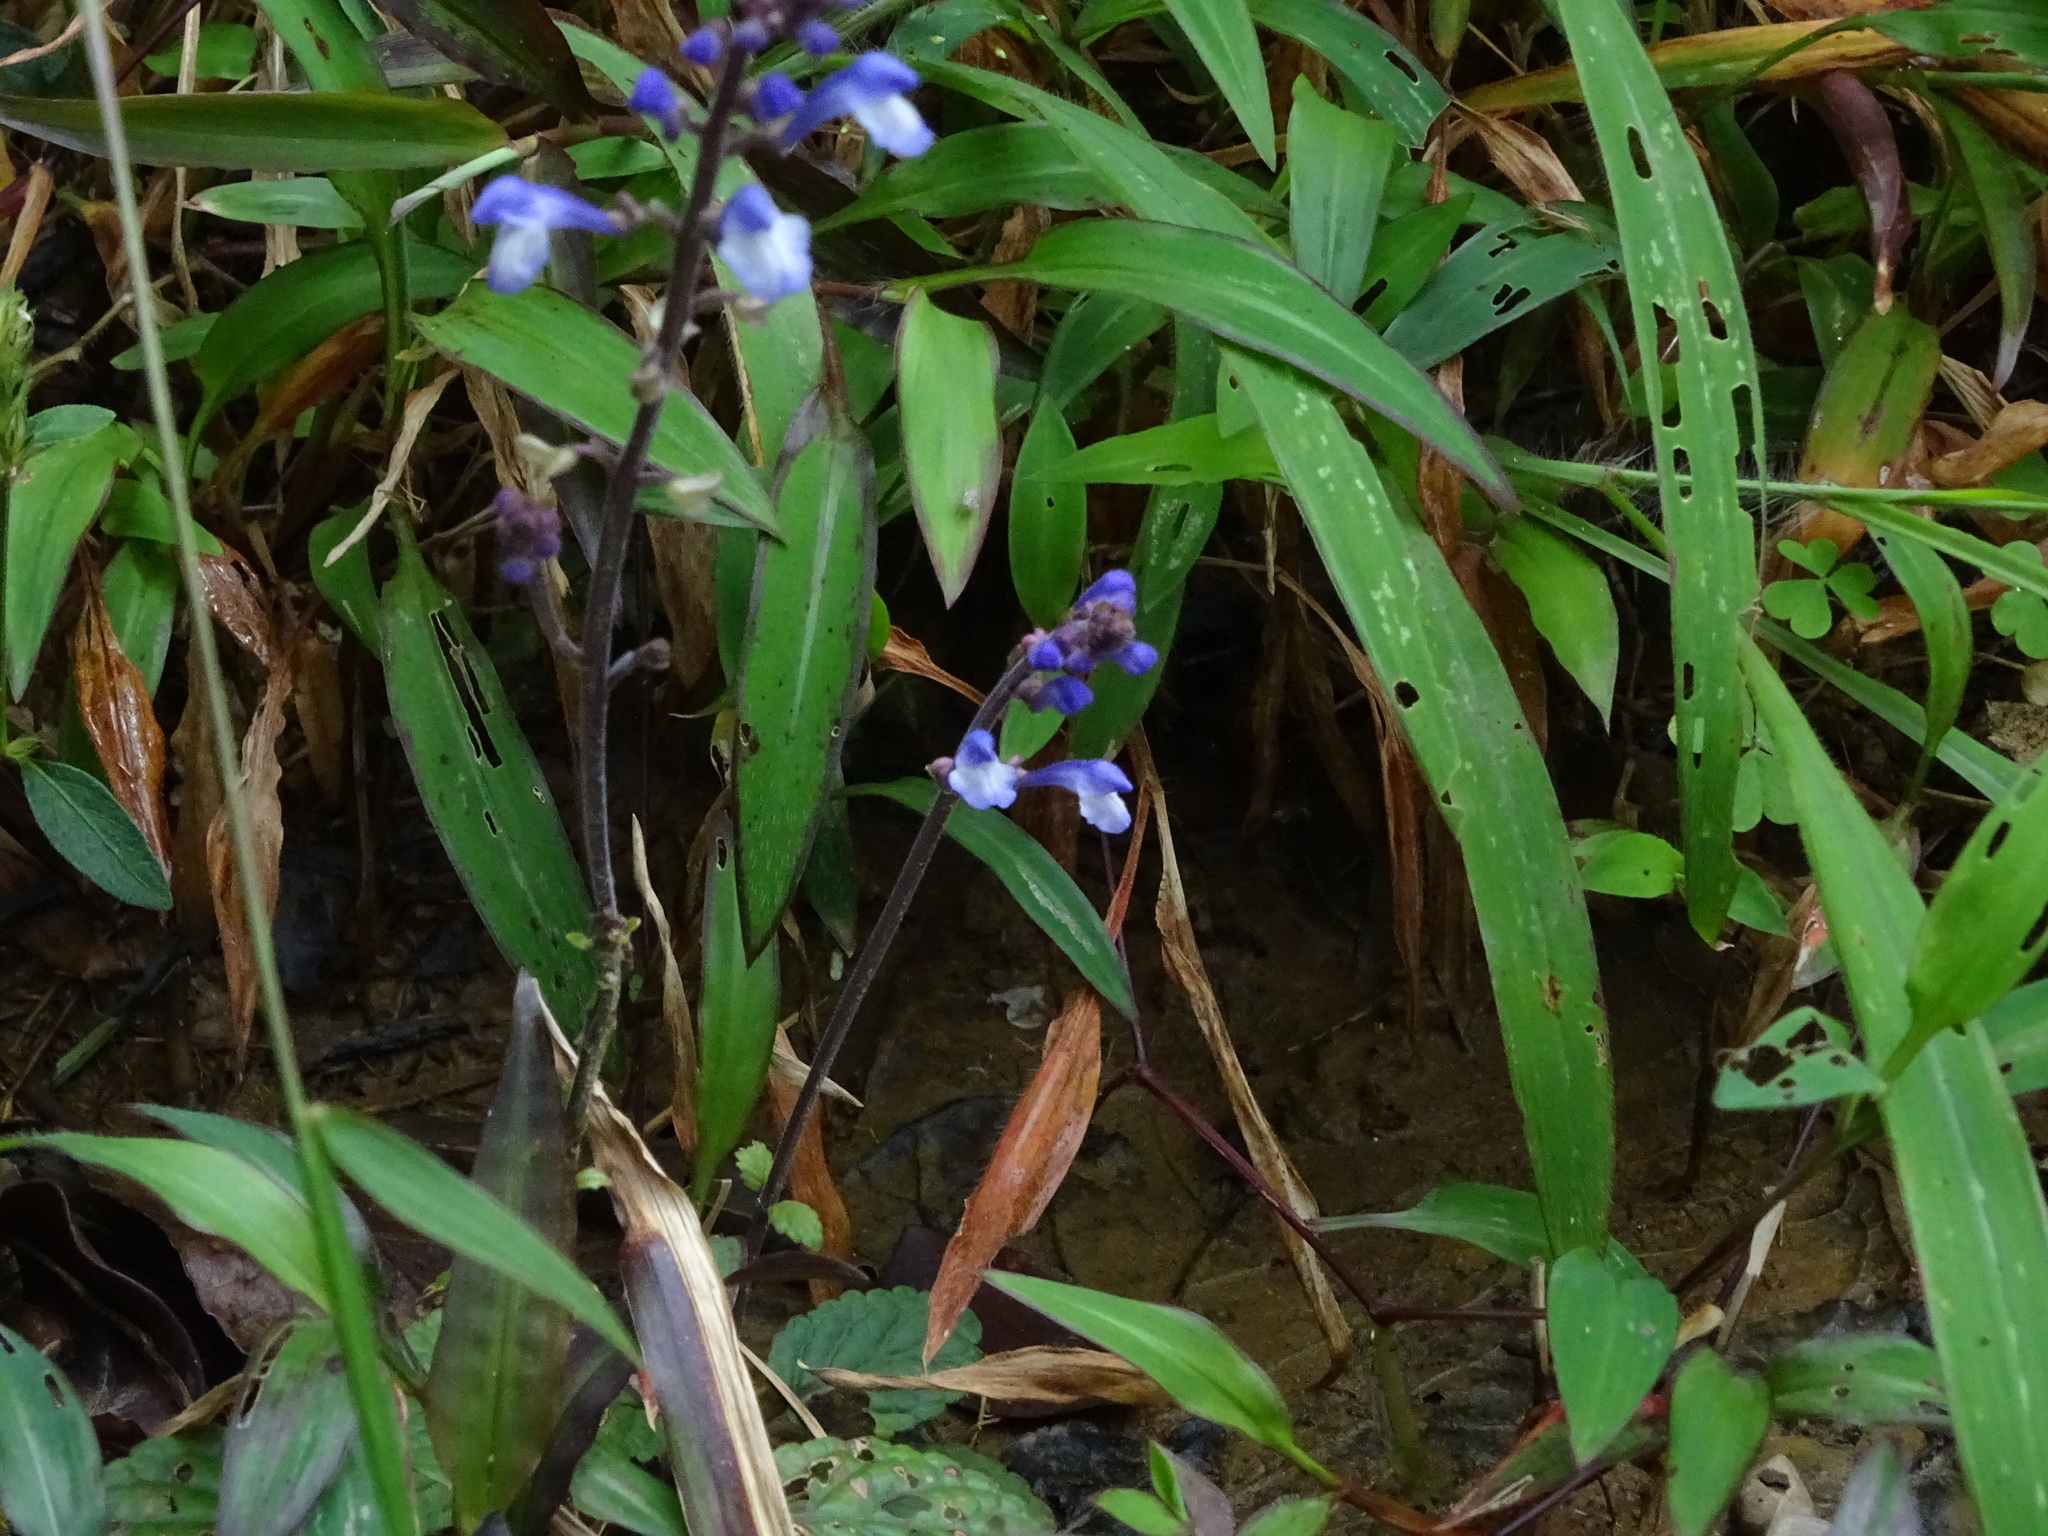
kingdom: Plantae
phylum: Tracheophyta
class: Magnoliopsida
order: Lamiales
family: Lamiaceae
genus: Scutellaria
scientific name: Scutellaria violacea
